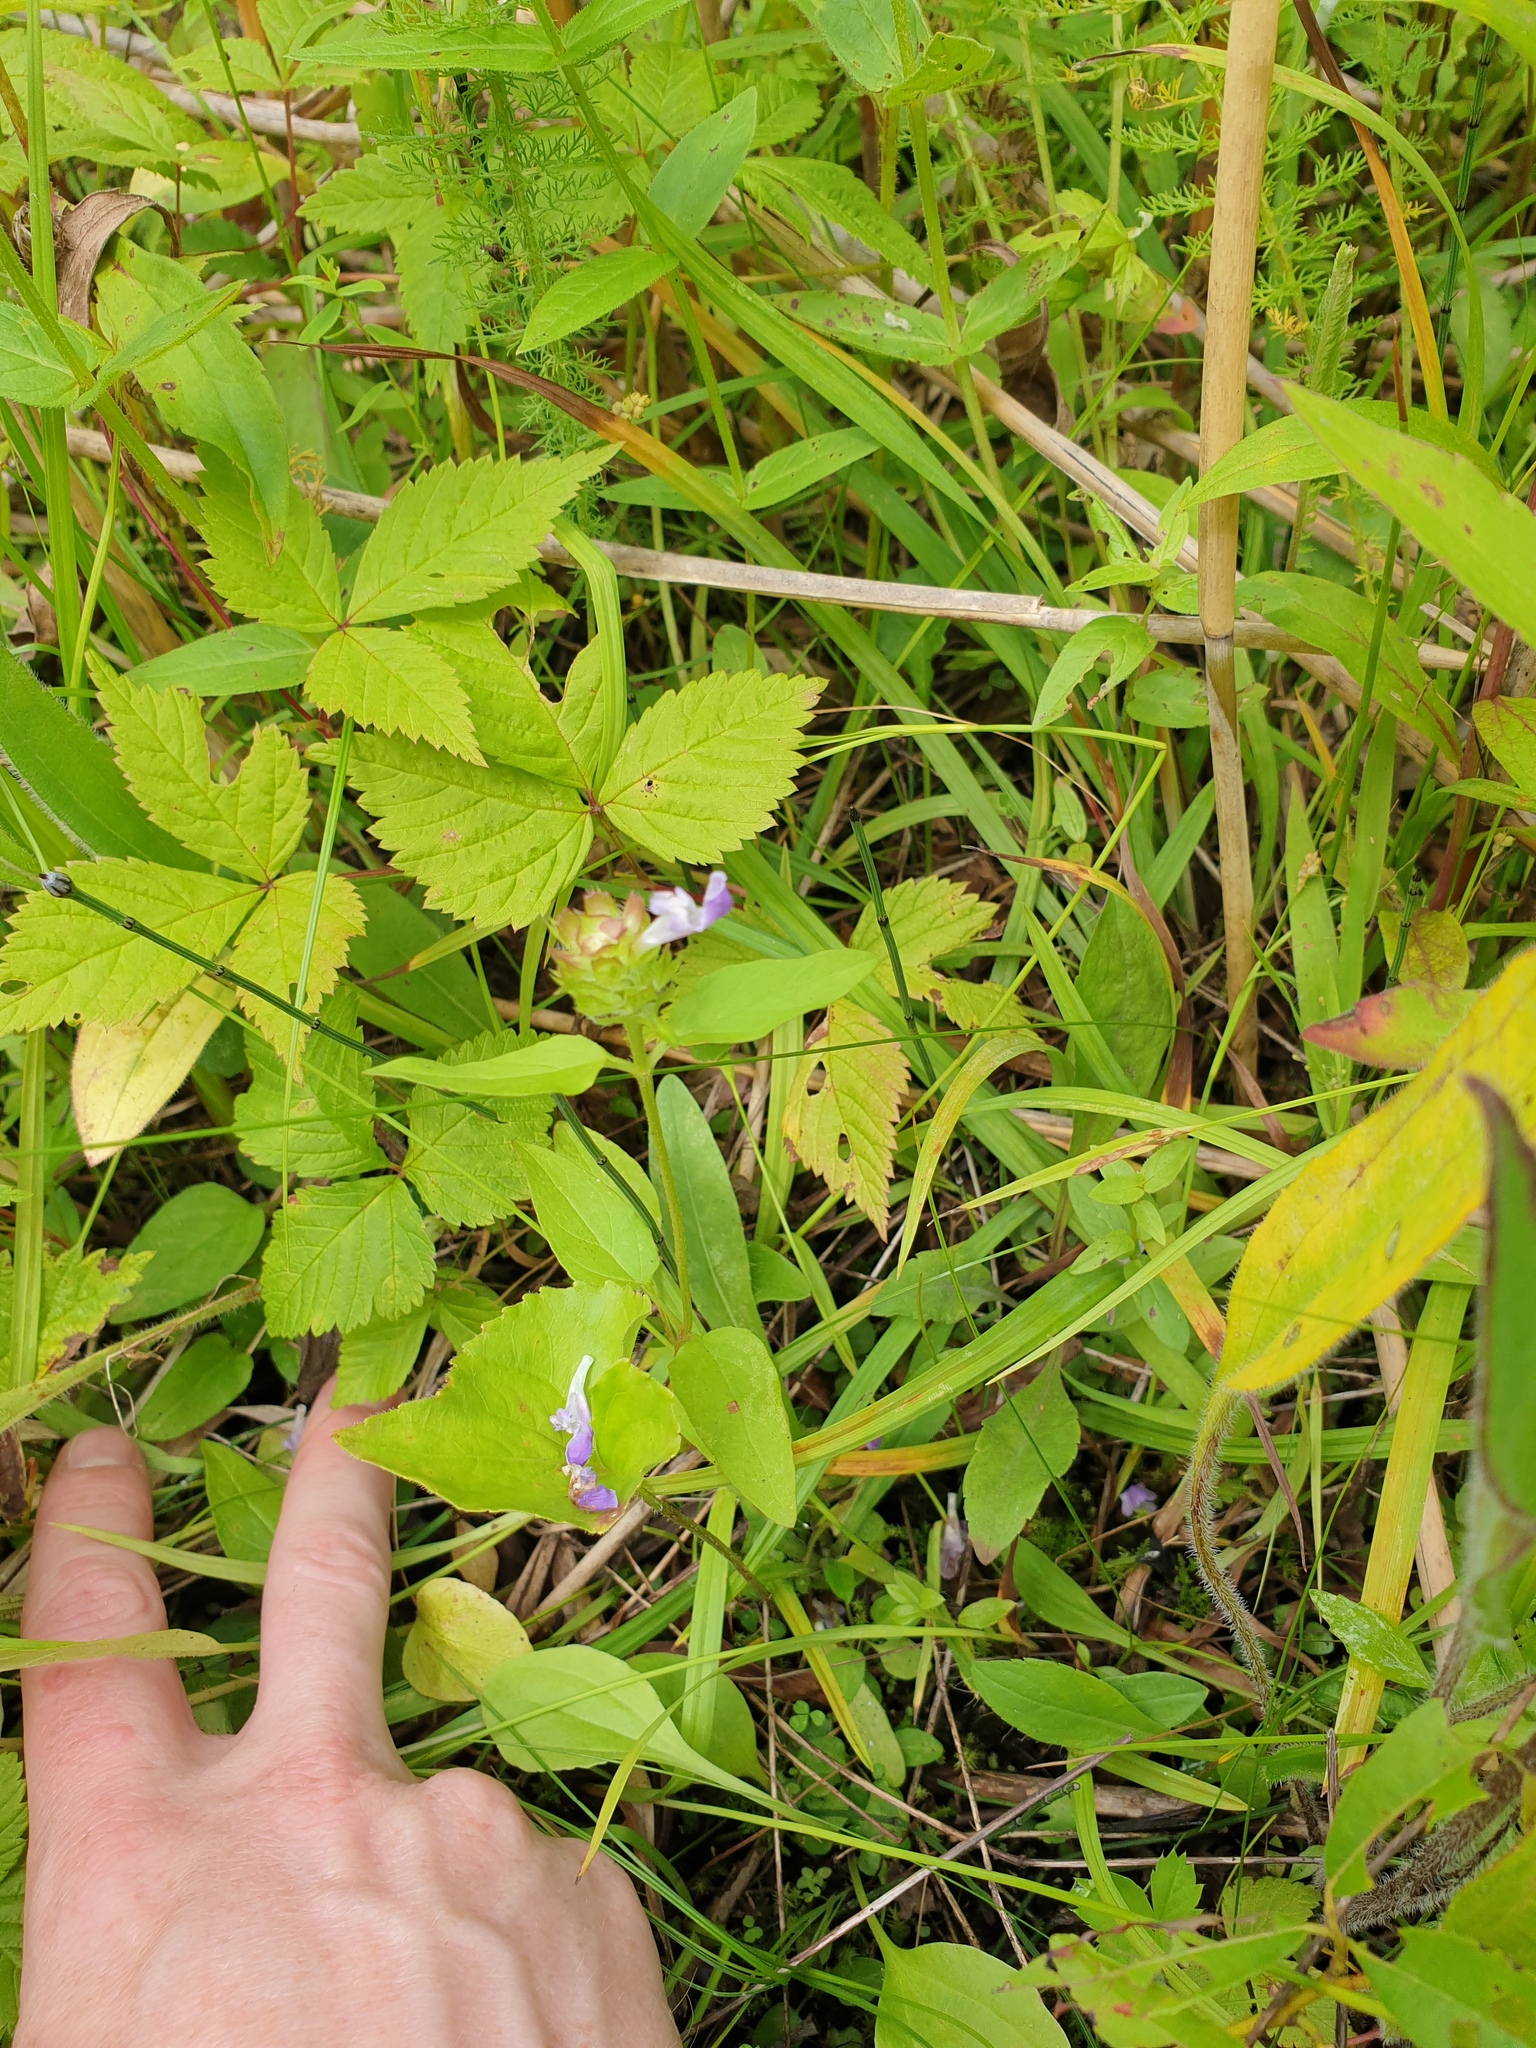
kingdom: Plantae
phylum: Tracheophyta
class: Magnoliopsida
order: Lamiales
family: Lamiaceae
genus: Prunella
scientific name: Prunella vulgaris
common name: Heal-all
